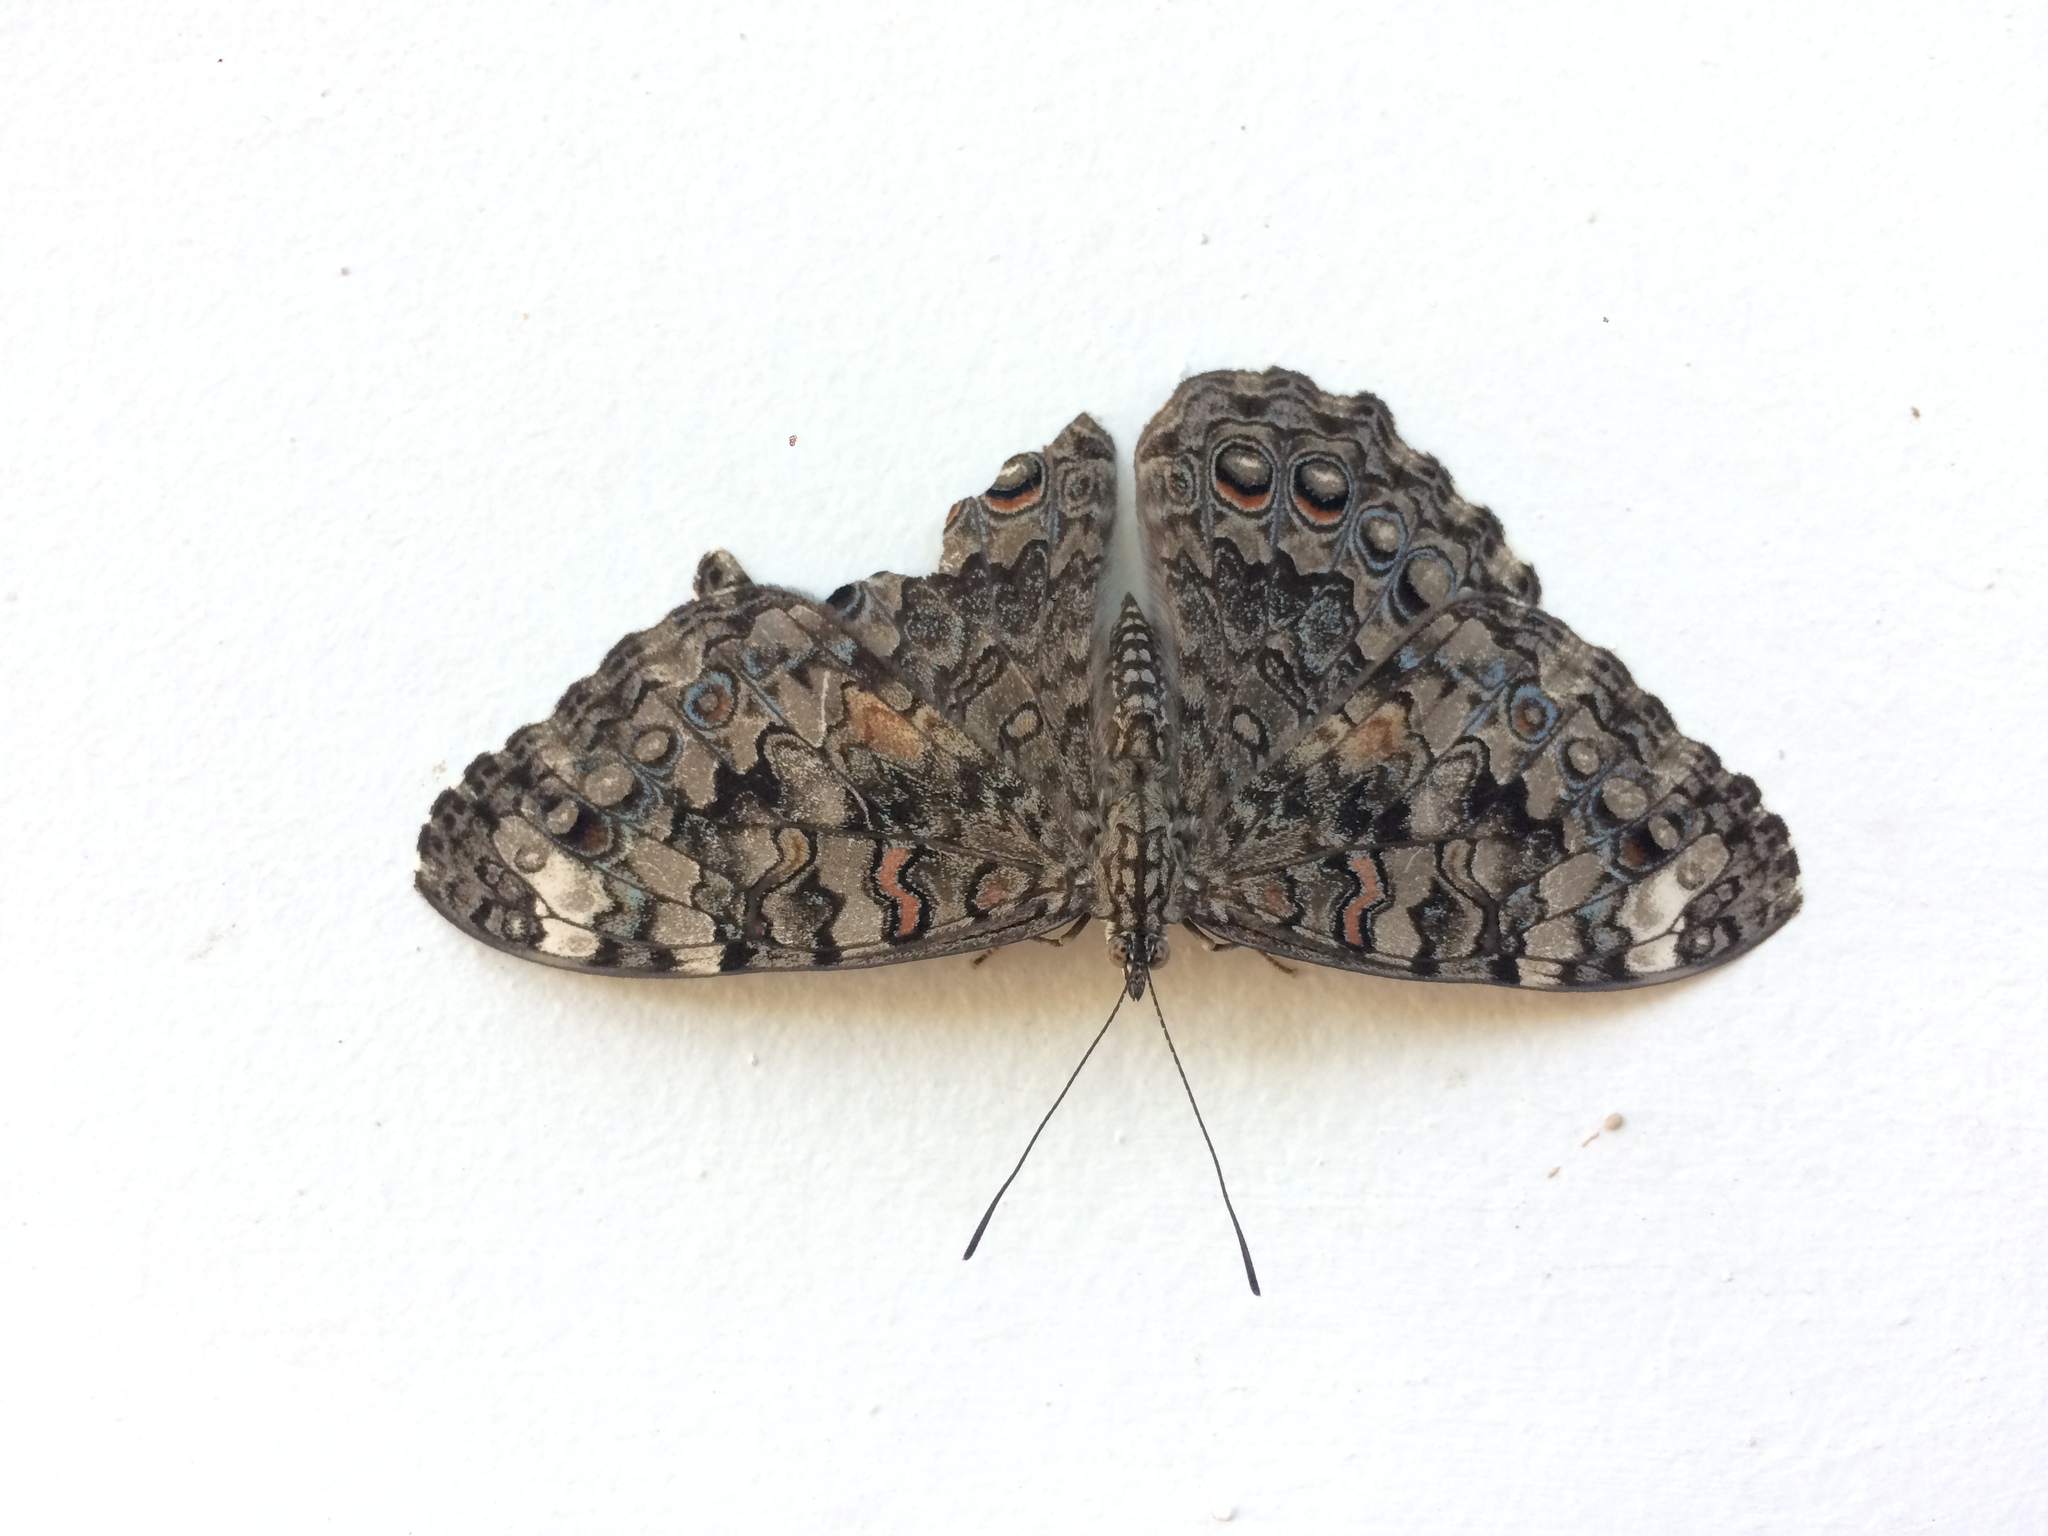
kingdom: Animalia
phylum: Arthropoda
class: Insecta
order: Lepidoptera
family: Nymphalidae
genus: Hamadryas
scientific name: Hamadryas februa
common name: Gray cracker
